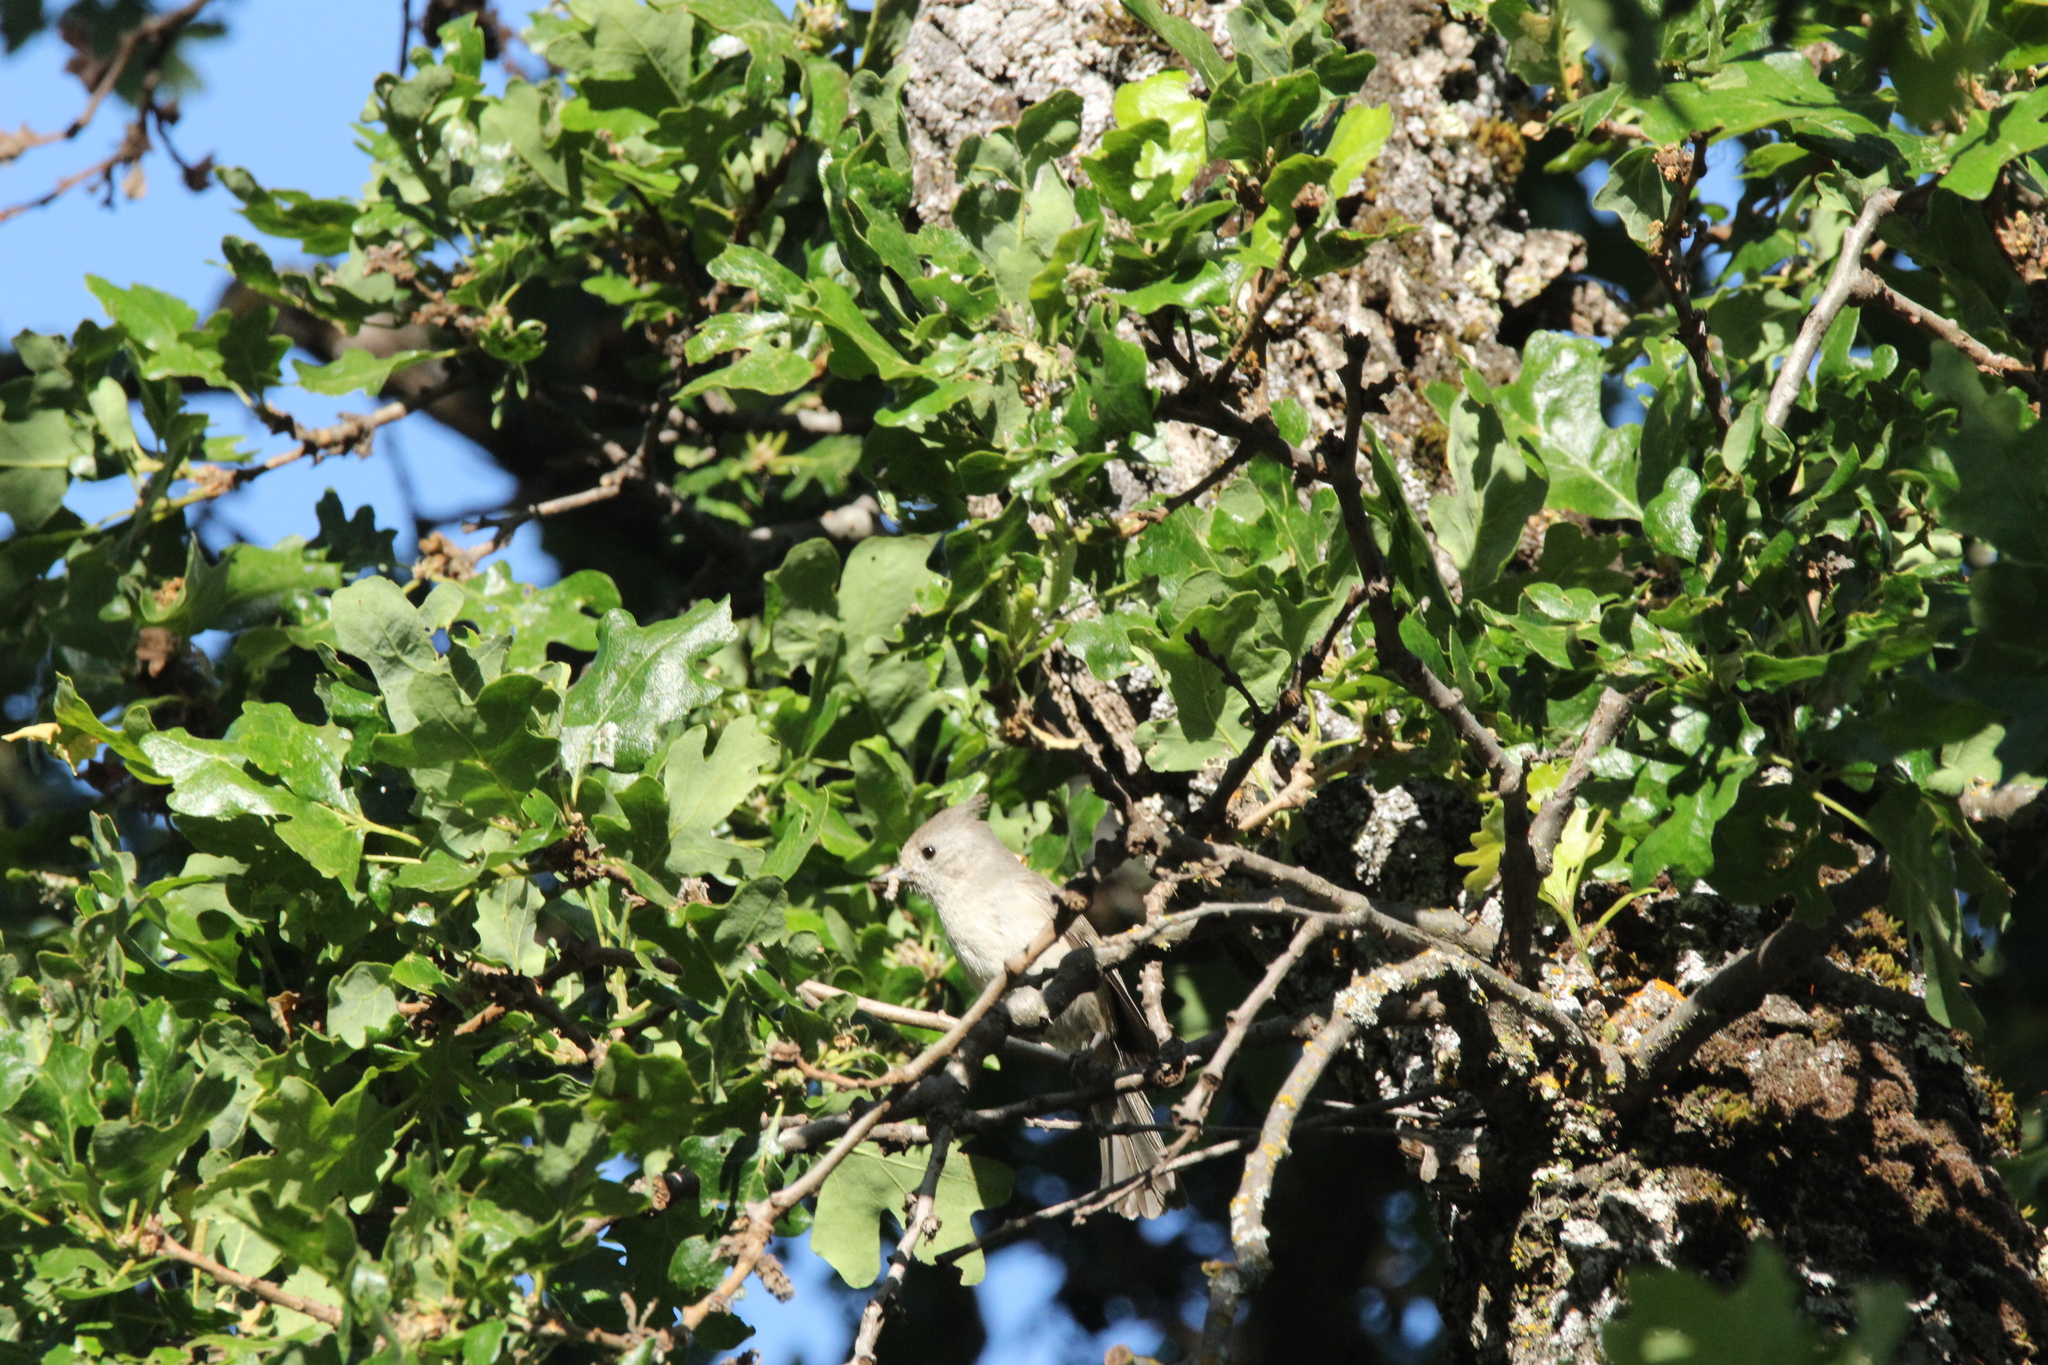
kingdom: Animalia
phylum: Chordata
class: Aves
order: Passeriformes
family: Paridae
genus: Baeolophus
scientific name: Baeolophus inornatus
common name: Oak titmouse
